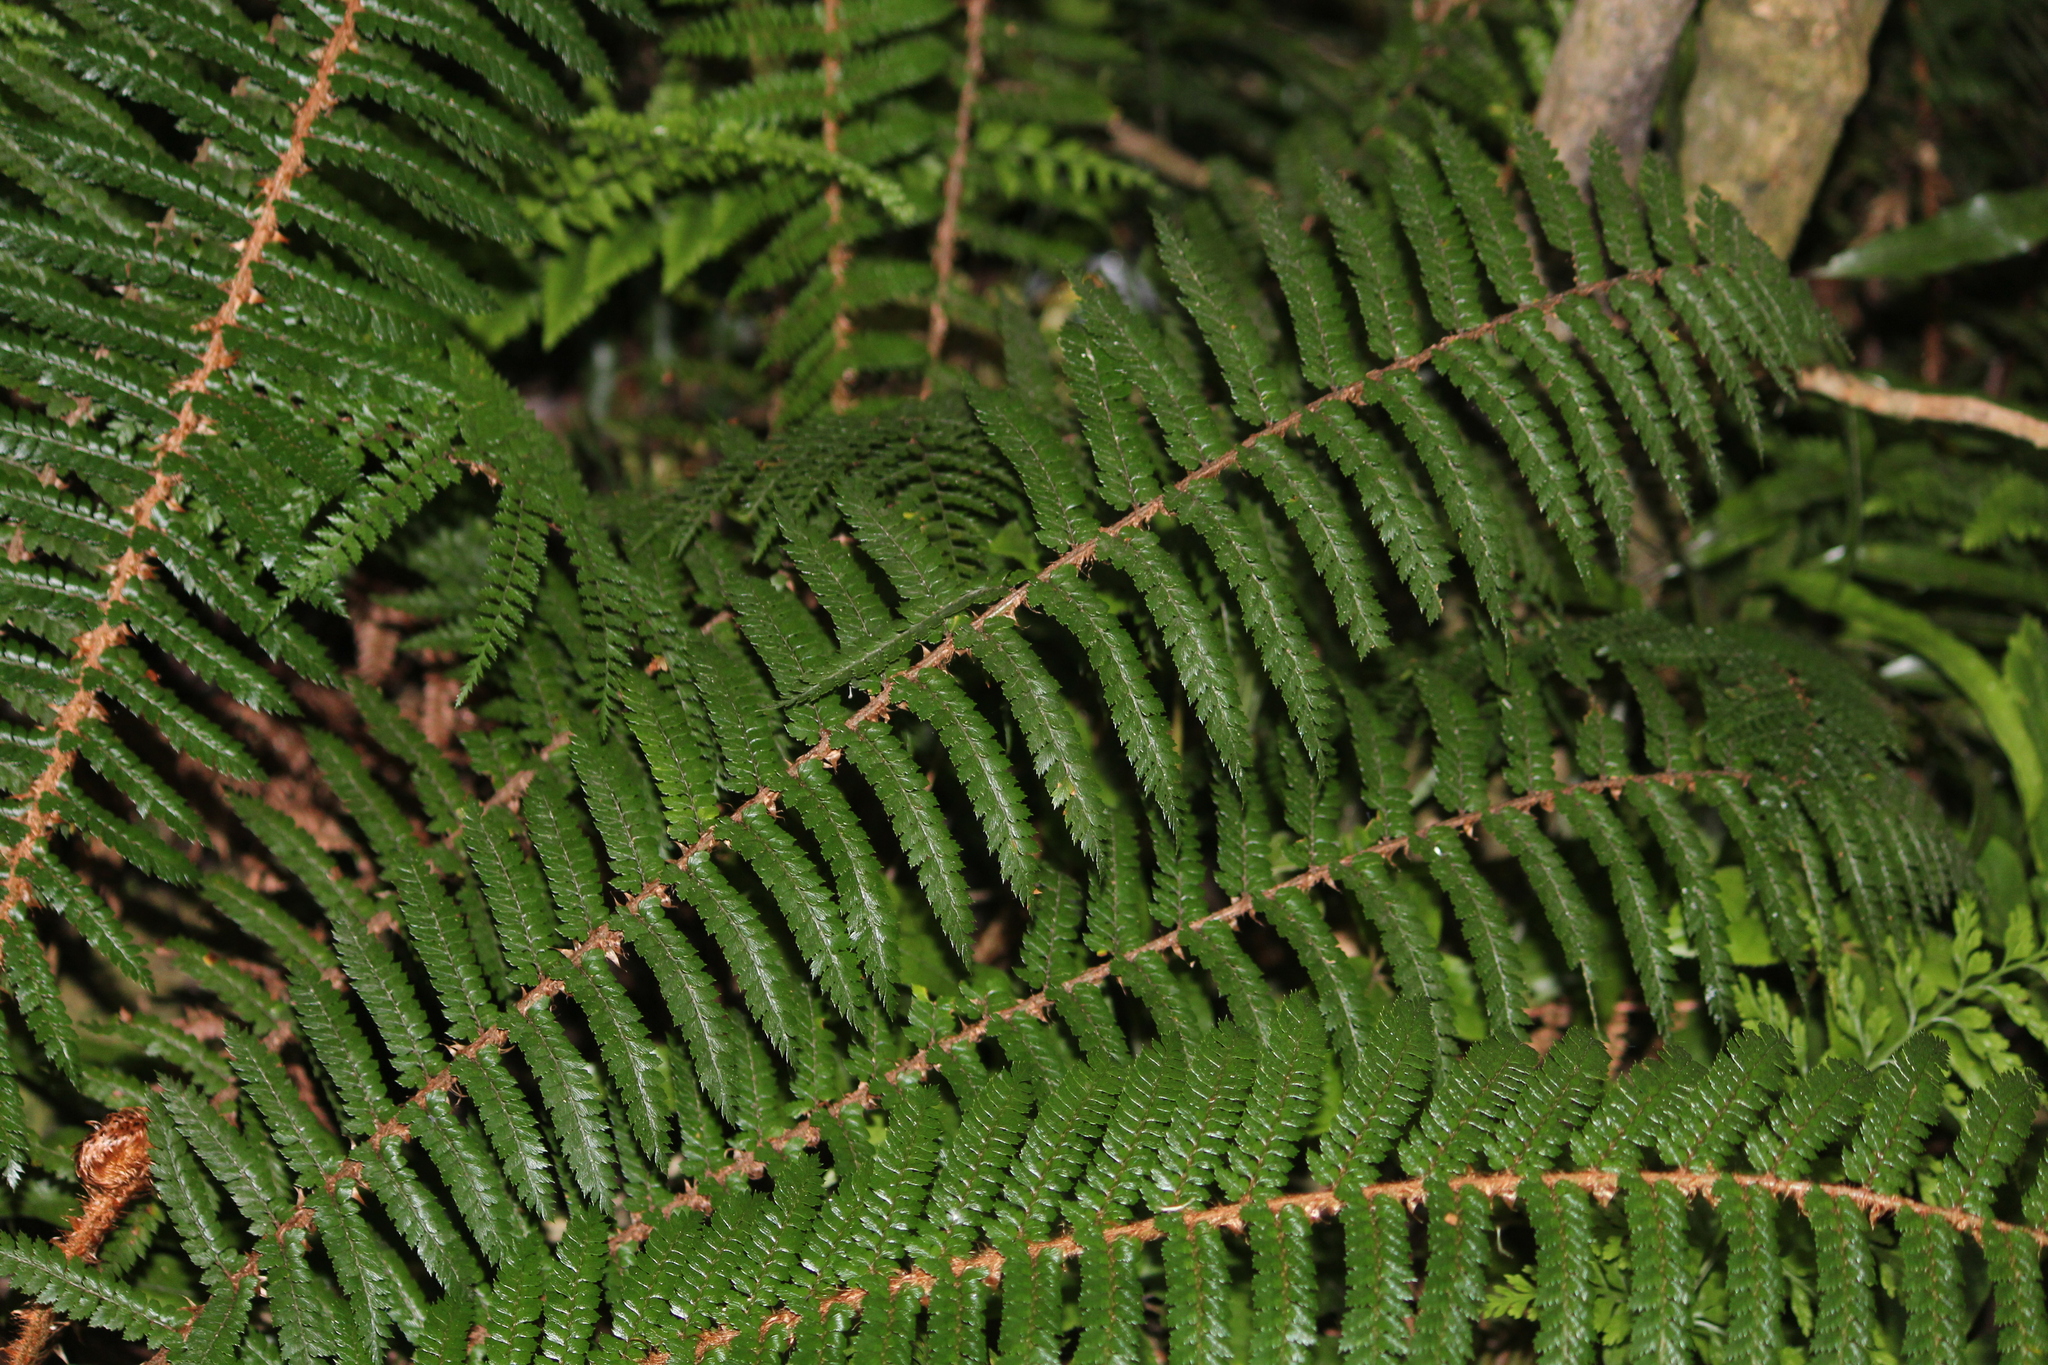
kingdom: Plantae
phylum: Tracheophyta
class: Polypodiopsida
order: Polypodiales
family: Dryopteridaceae
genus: Polystichum
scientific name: Polystichum vestitum
